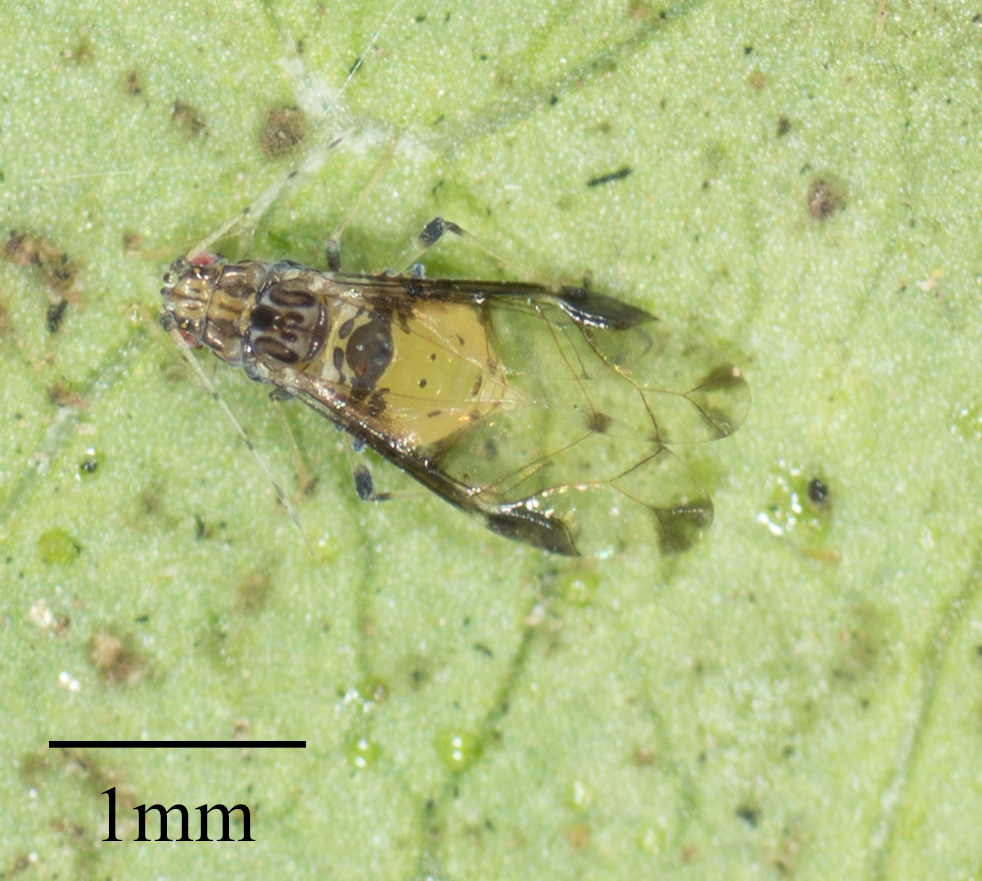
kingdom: Animalia
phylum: Arthropoda
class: Insecta
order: Hemiptera
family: Aphididae
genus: Sarucallis
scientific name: Sarucallis kahawaluokalani
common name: Crapemyrtle aphid
